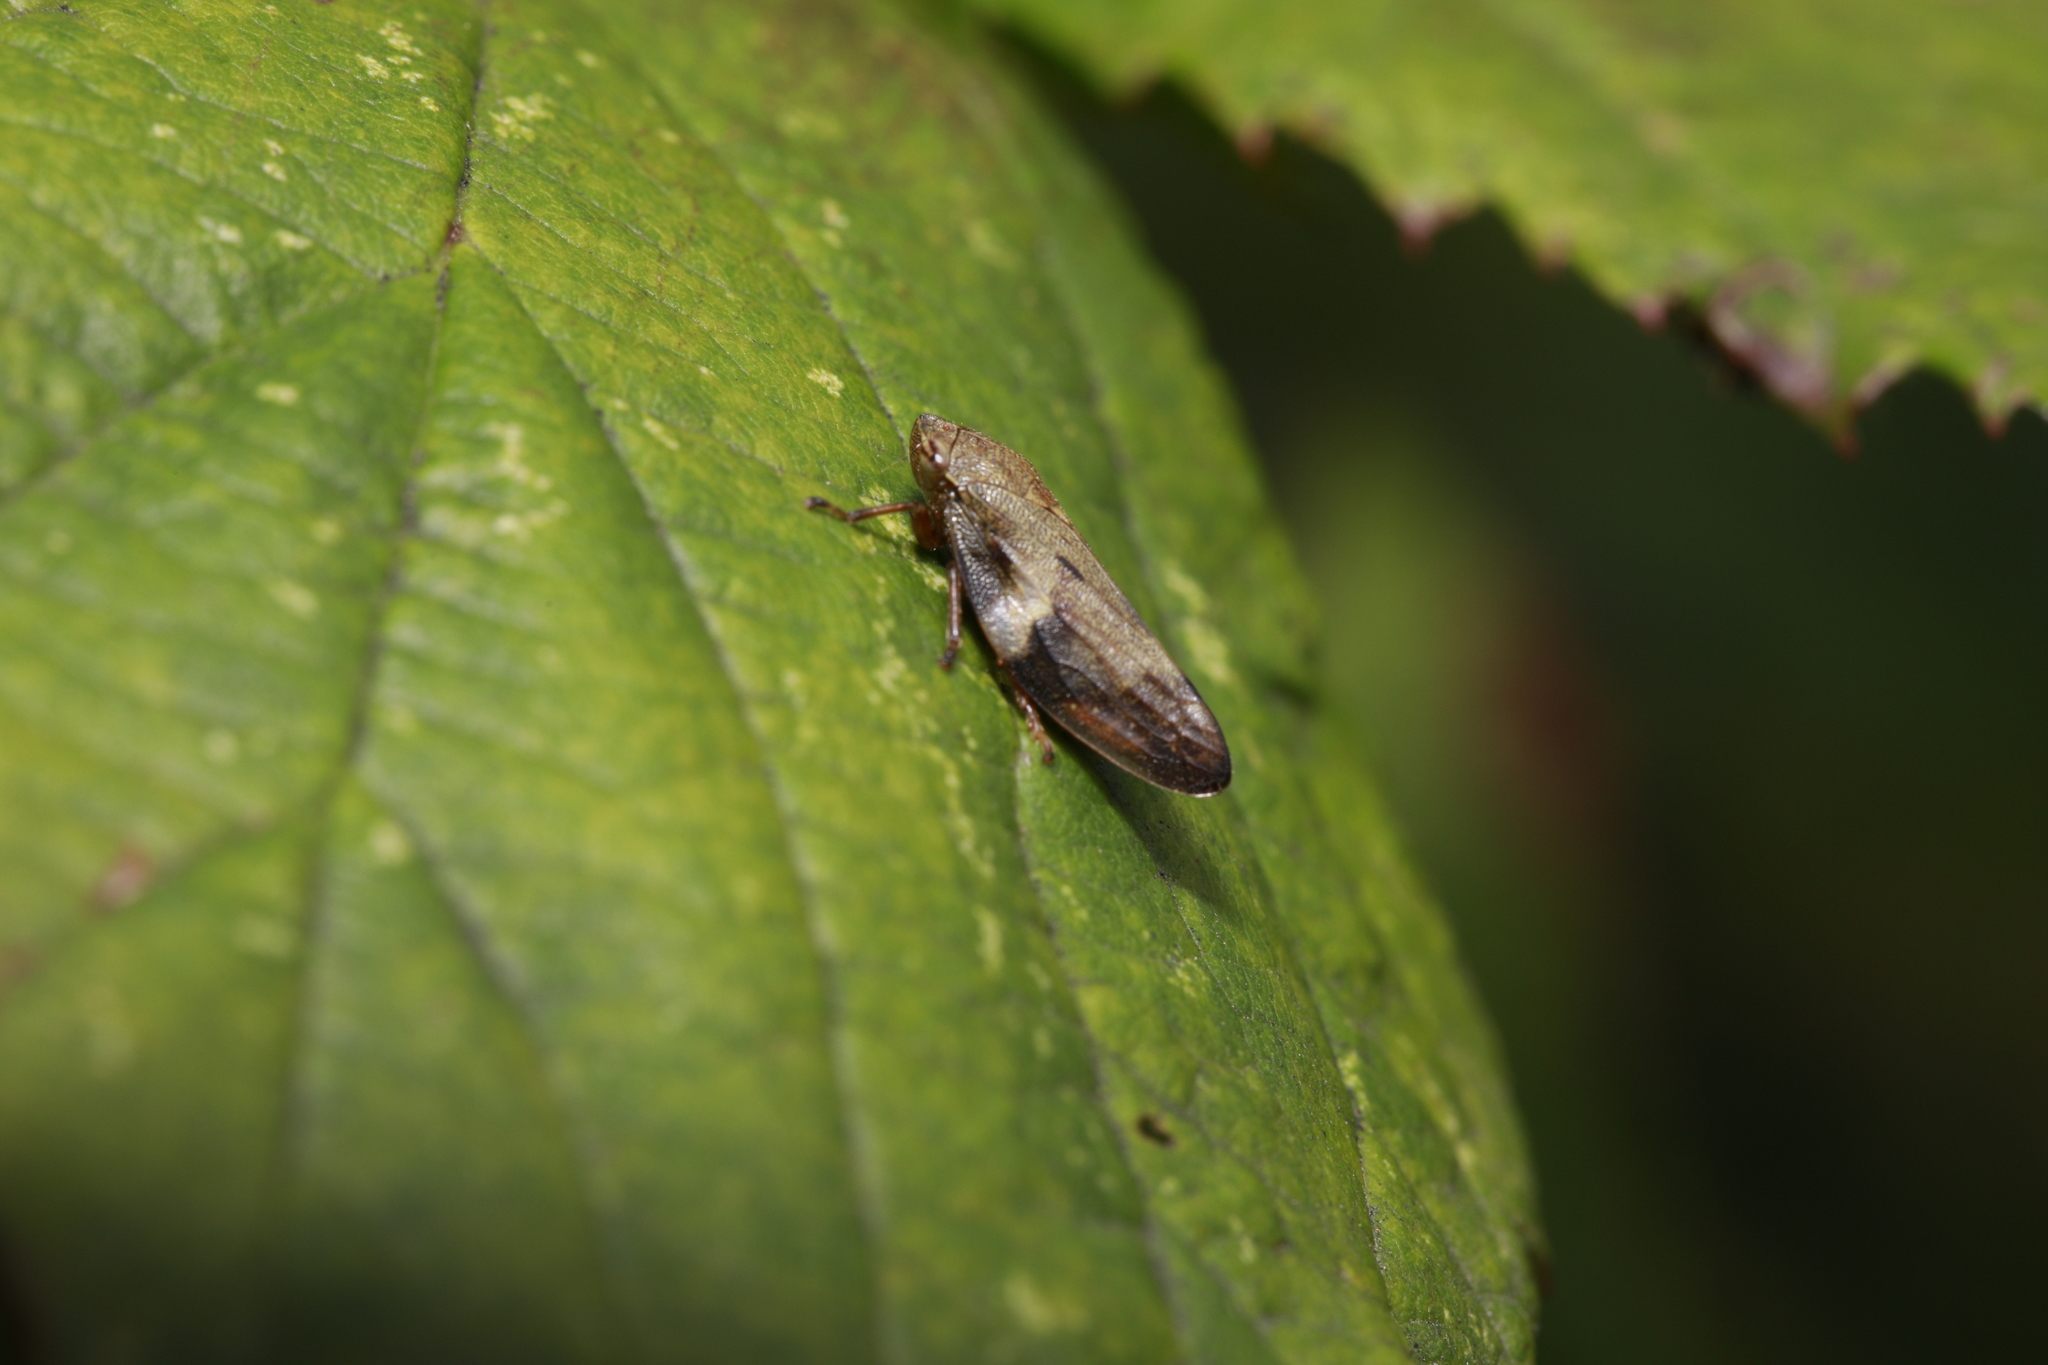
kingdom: Animalia
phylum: Arthropoda
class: Insecta
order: Hemiptera
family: Aphrophoridae
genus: Aphrophora
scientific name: Aphrophora alni
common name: European alder spittlebug
